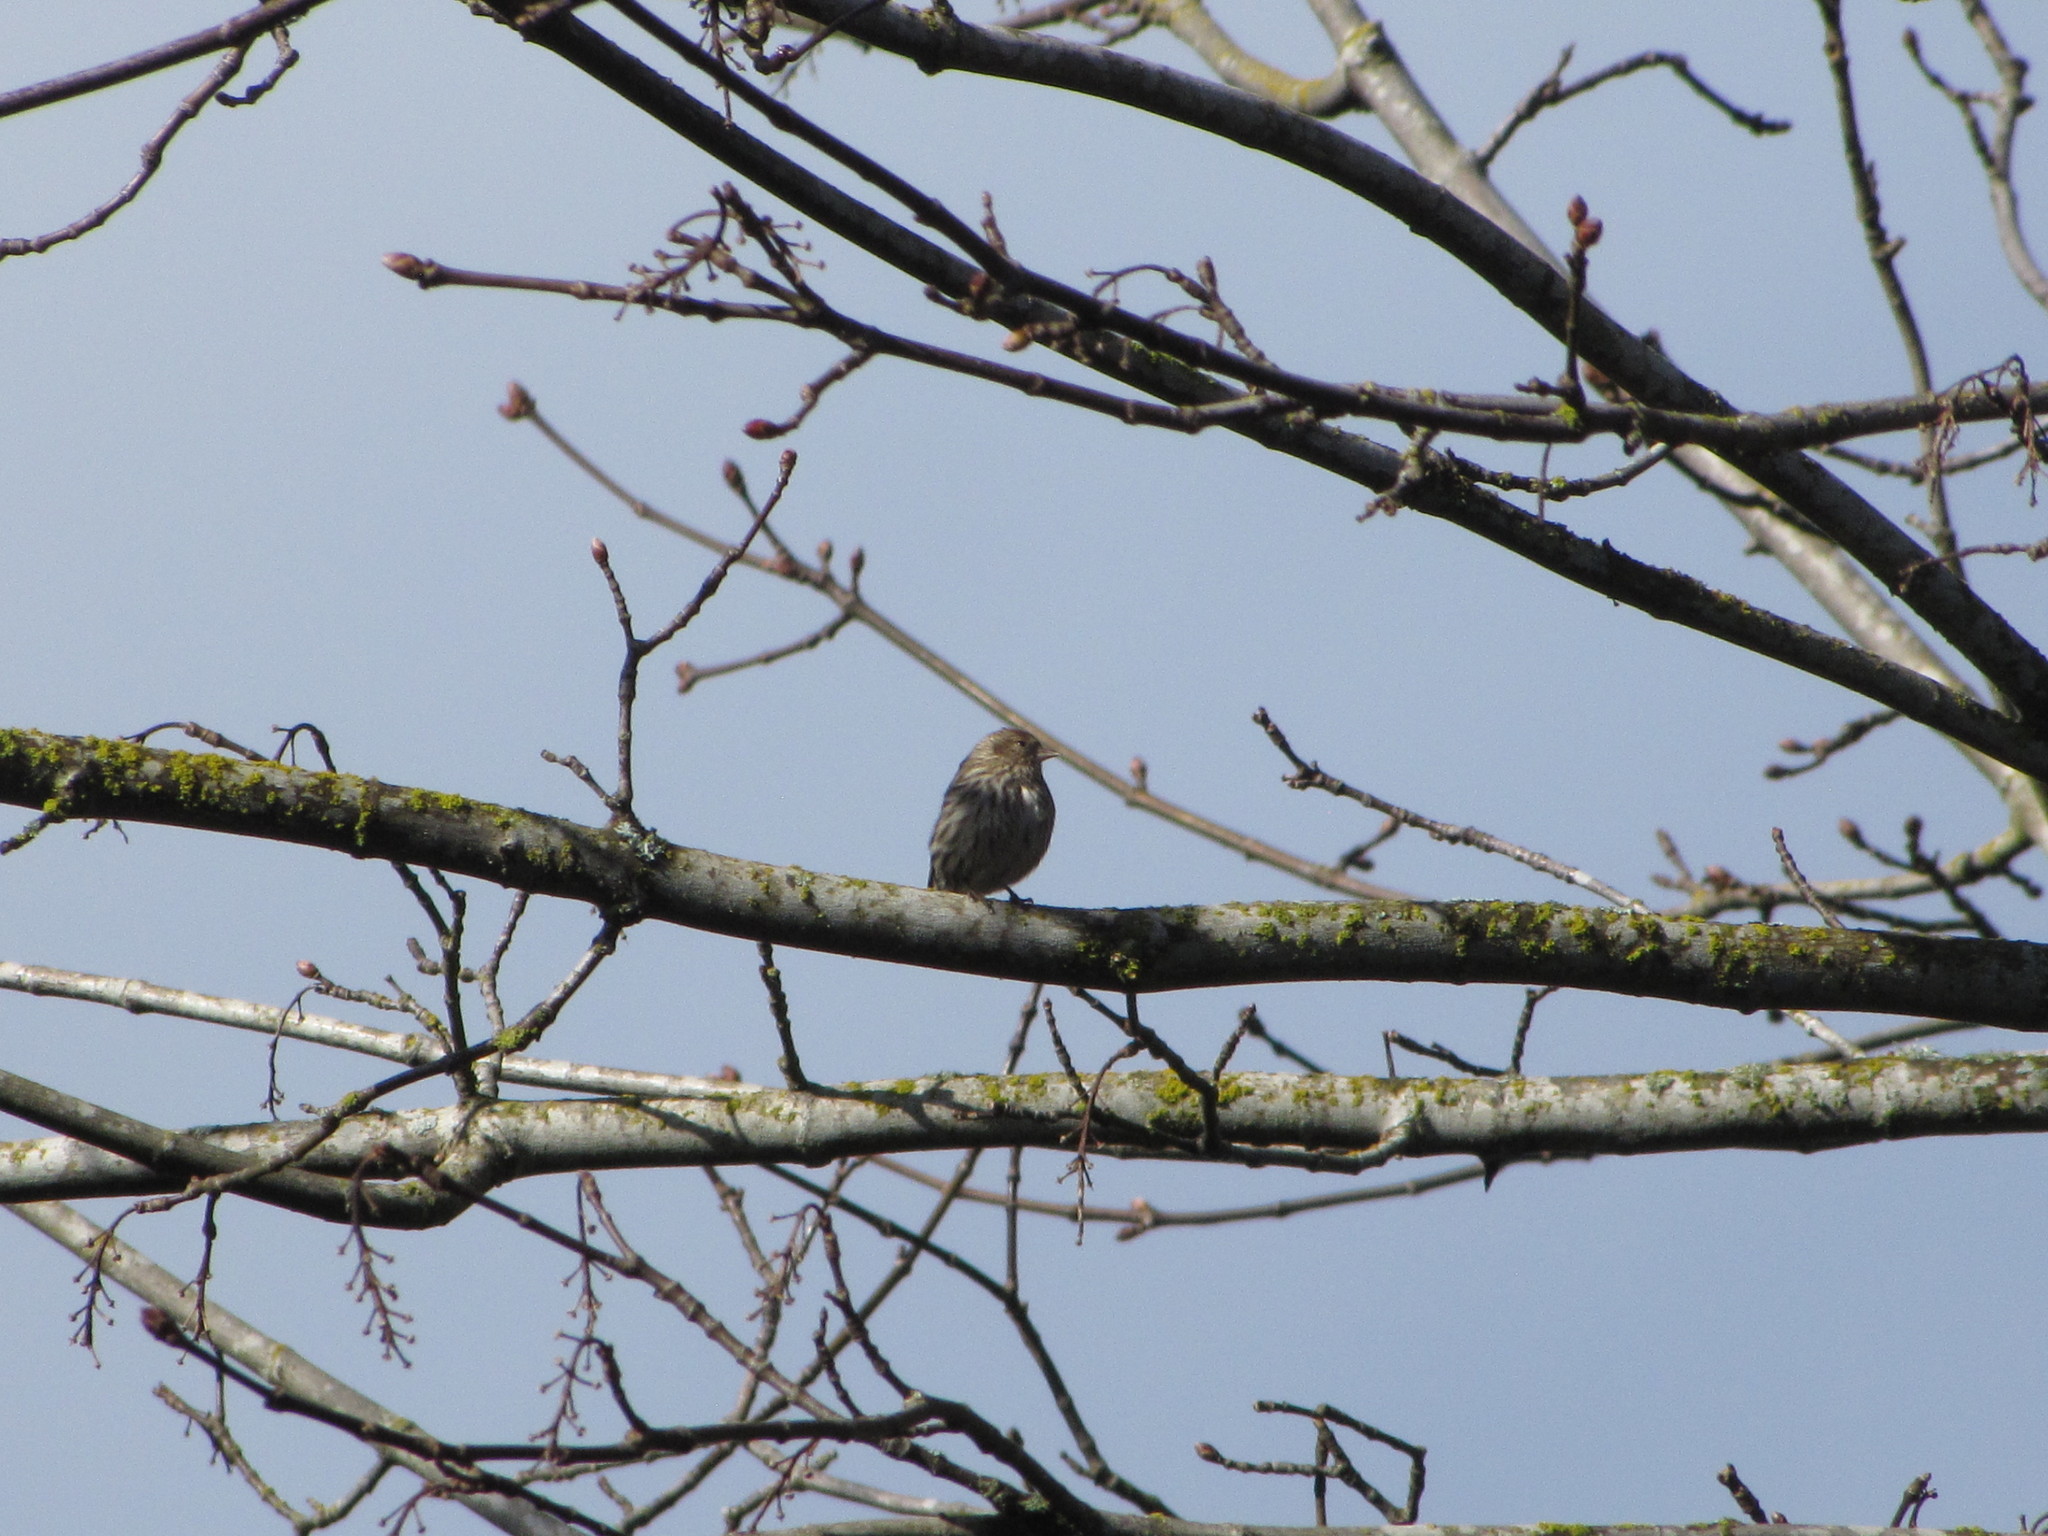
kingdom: Animalia
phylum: Chordata
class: Aves
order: Passeriformes
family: Fringillidae
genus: Spinus
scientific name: Spinus pinus
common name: Pine siskin
